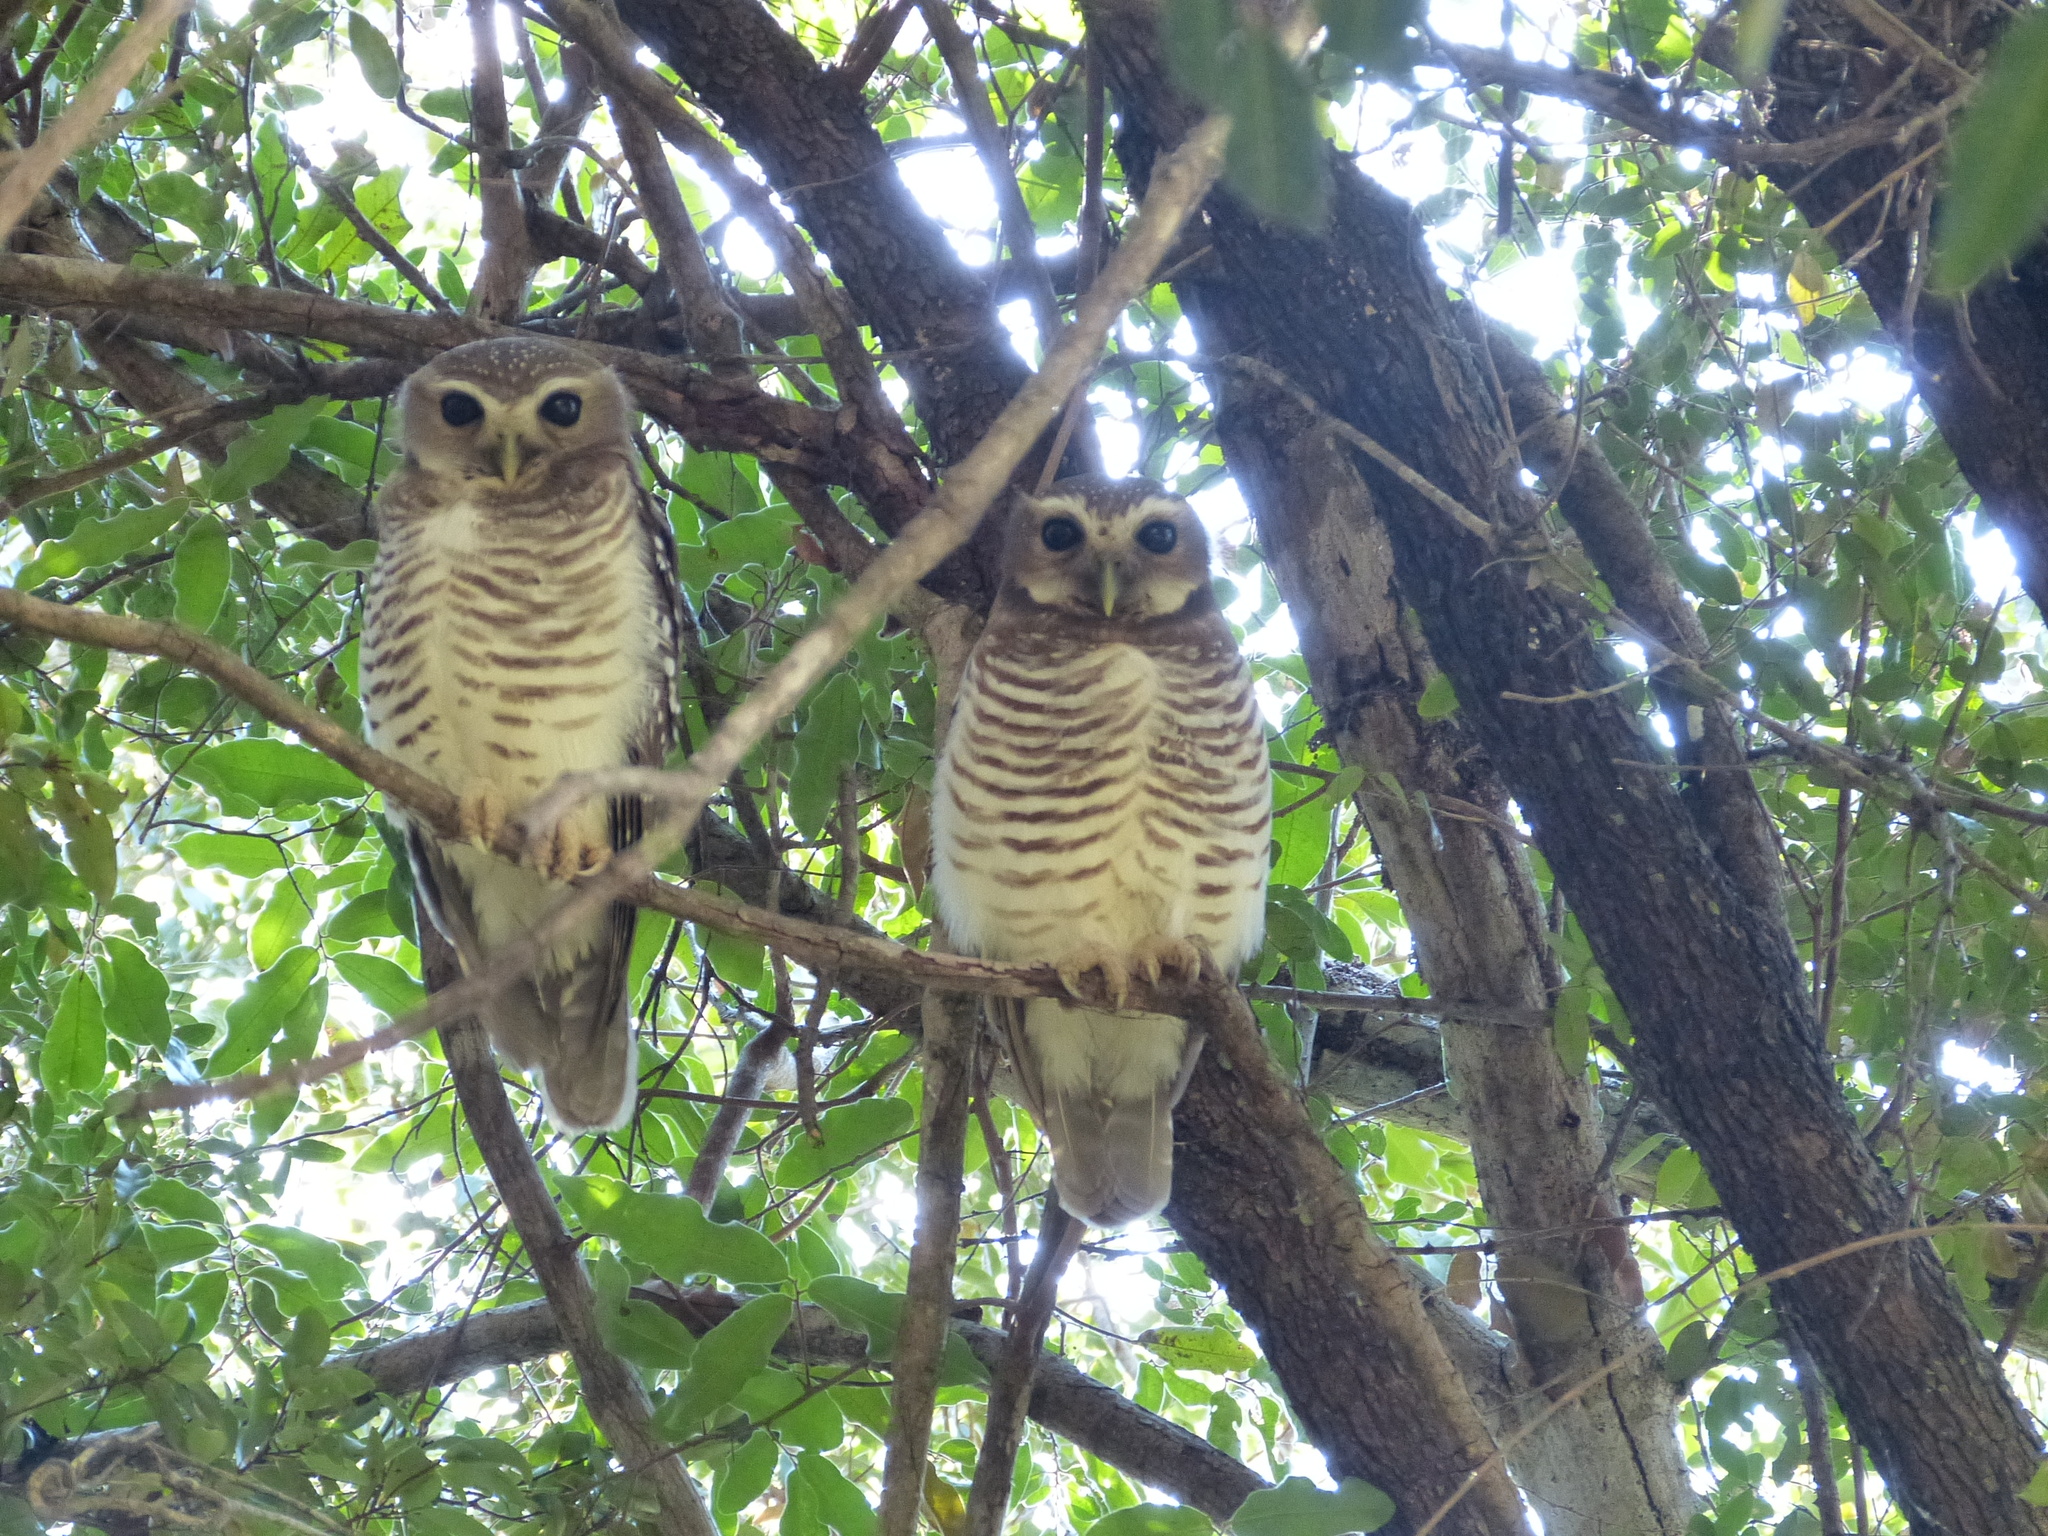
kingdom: Animalia
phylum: Chordata
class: Aves
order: Strigiformes
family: Strigidae
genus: Ninox
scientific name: Ninox superciliaris
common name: White-browed hawk-owl
